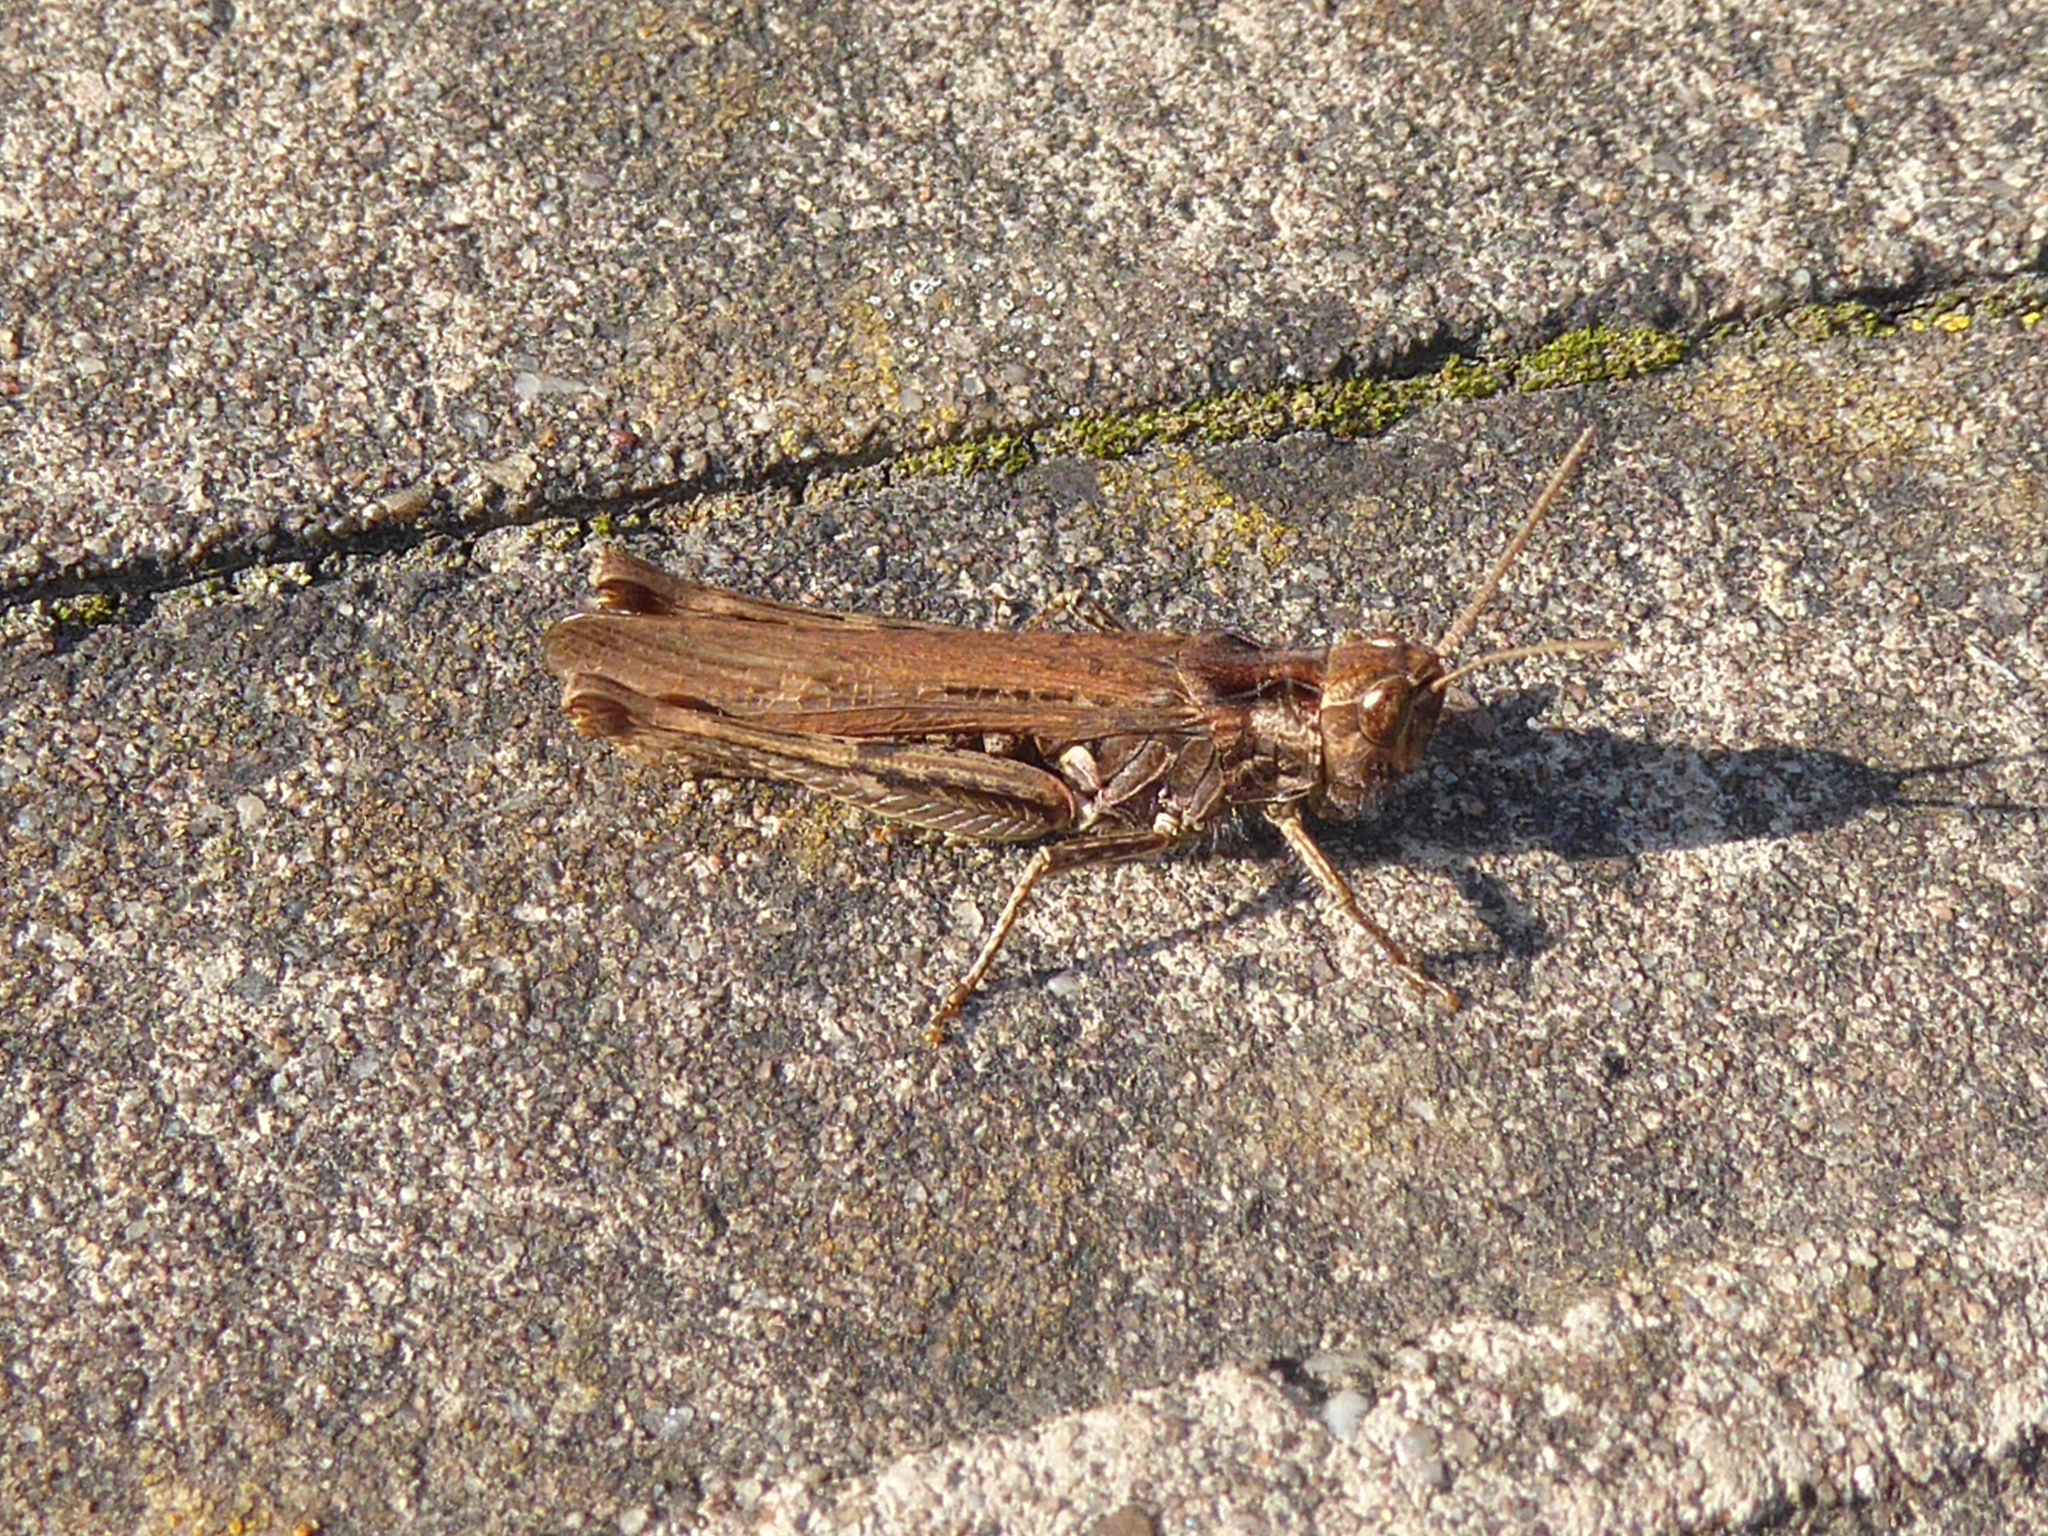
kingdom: Animalia
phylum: Arthropoda
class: Insecta
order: Orthoptera
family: Acrididae
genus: Chorthippus
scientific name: Chorthippus brunneus
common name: Field grasshopper
